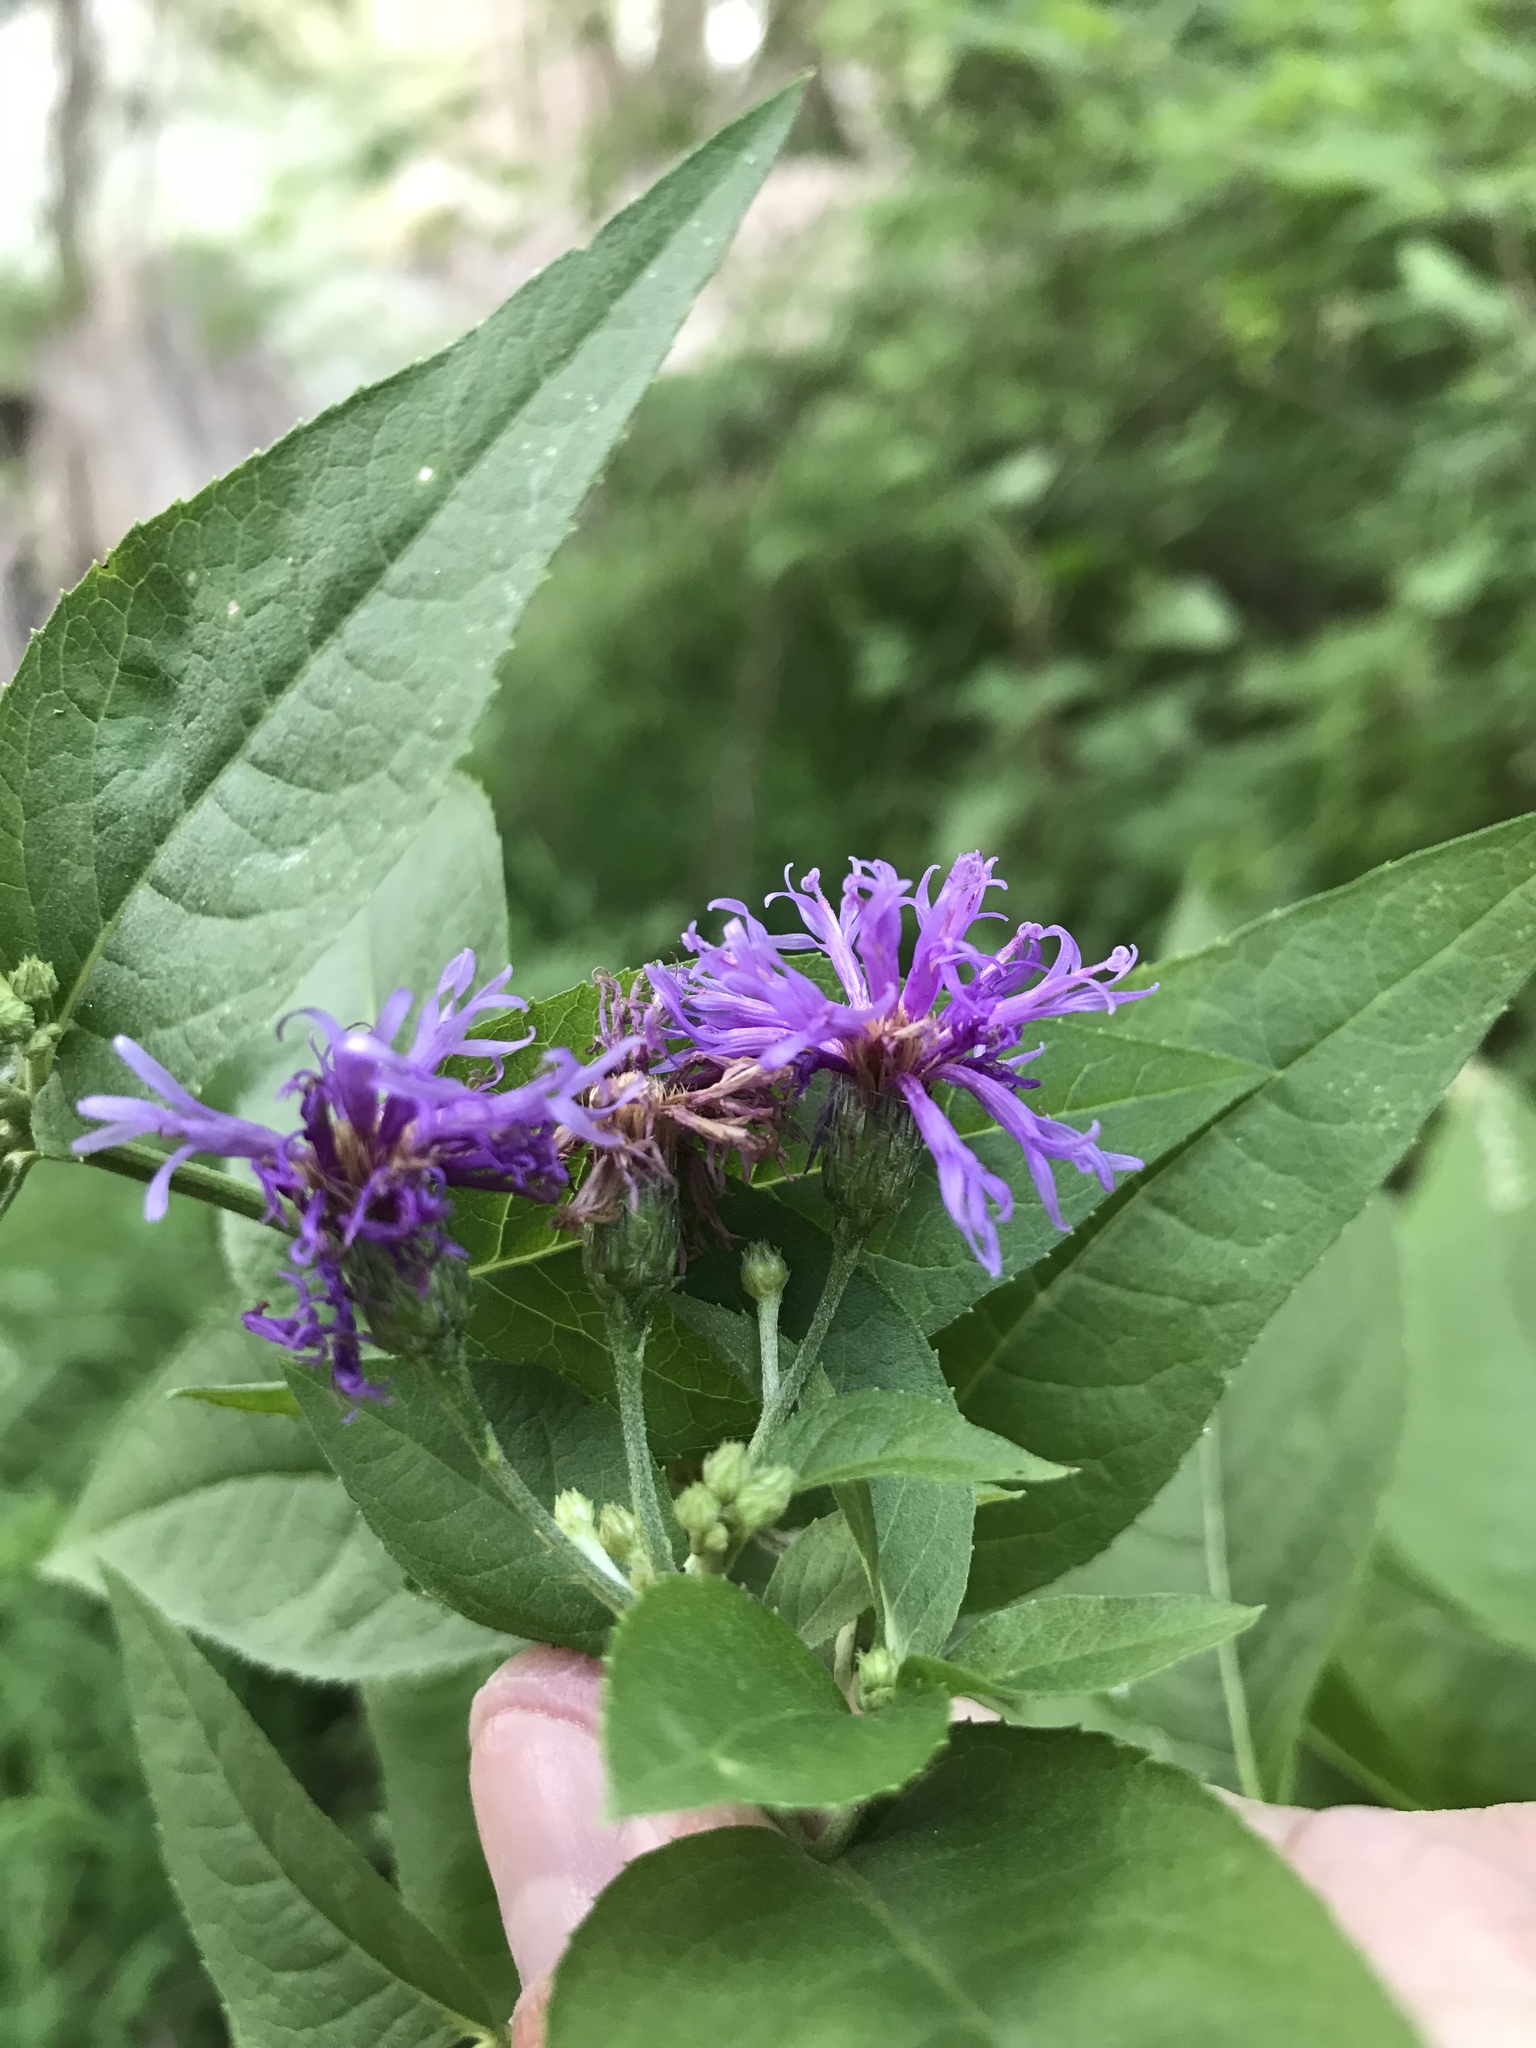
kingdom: Plantae
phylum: Tracheophyta
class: Magnoliopsida
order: Asterales
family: Asteraceae
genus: Vernonia
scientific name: Vernonia baldwinii
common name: Western ironweed
